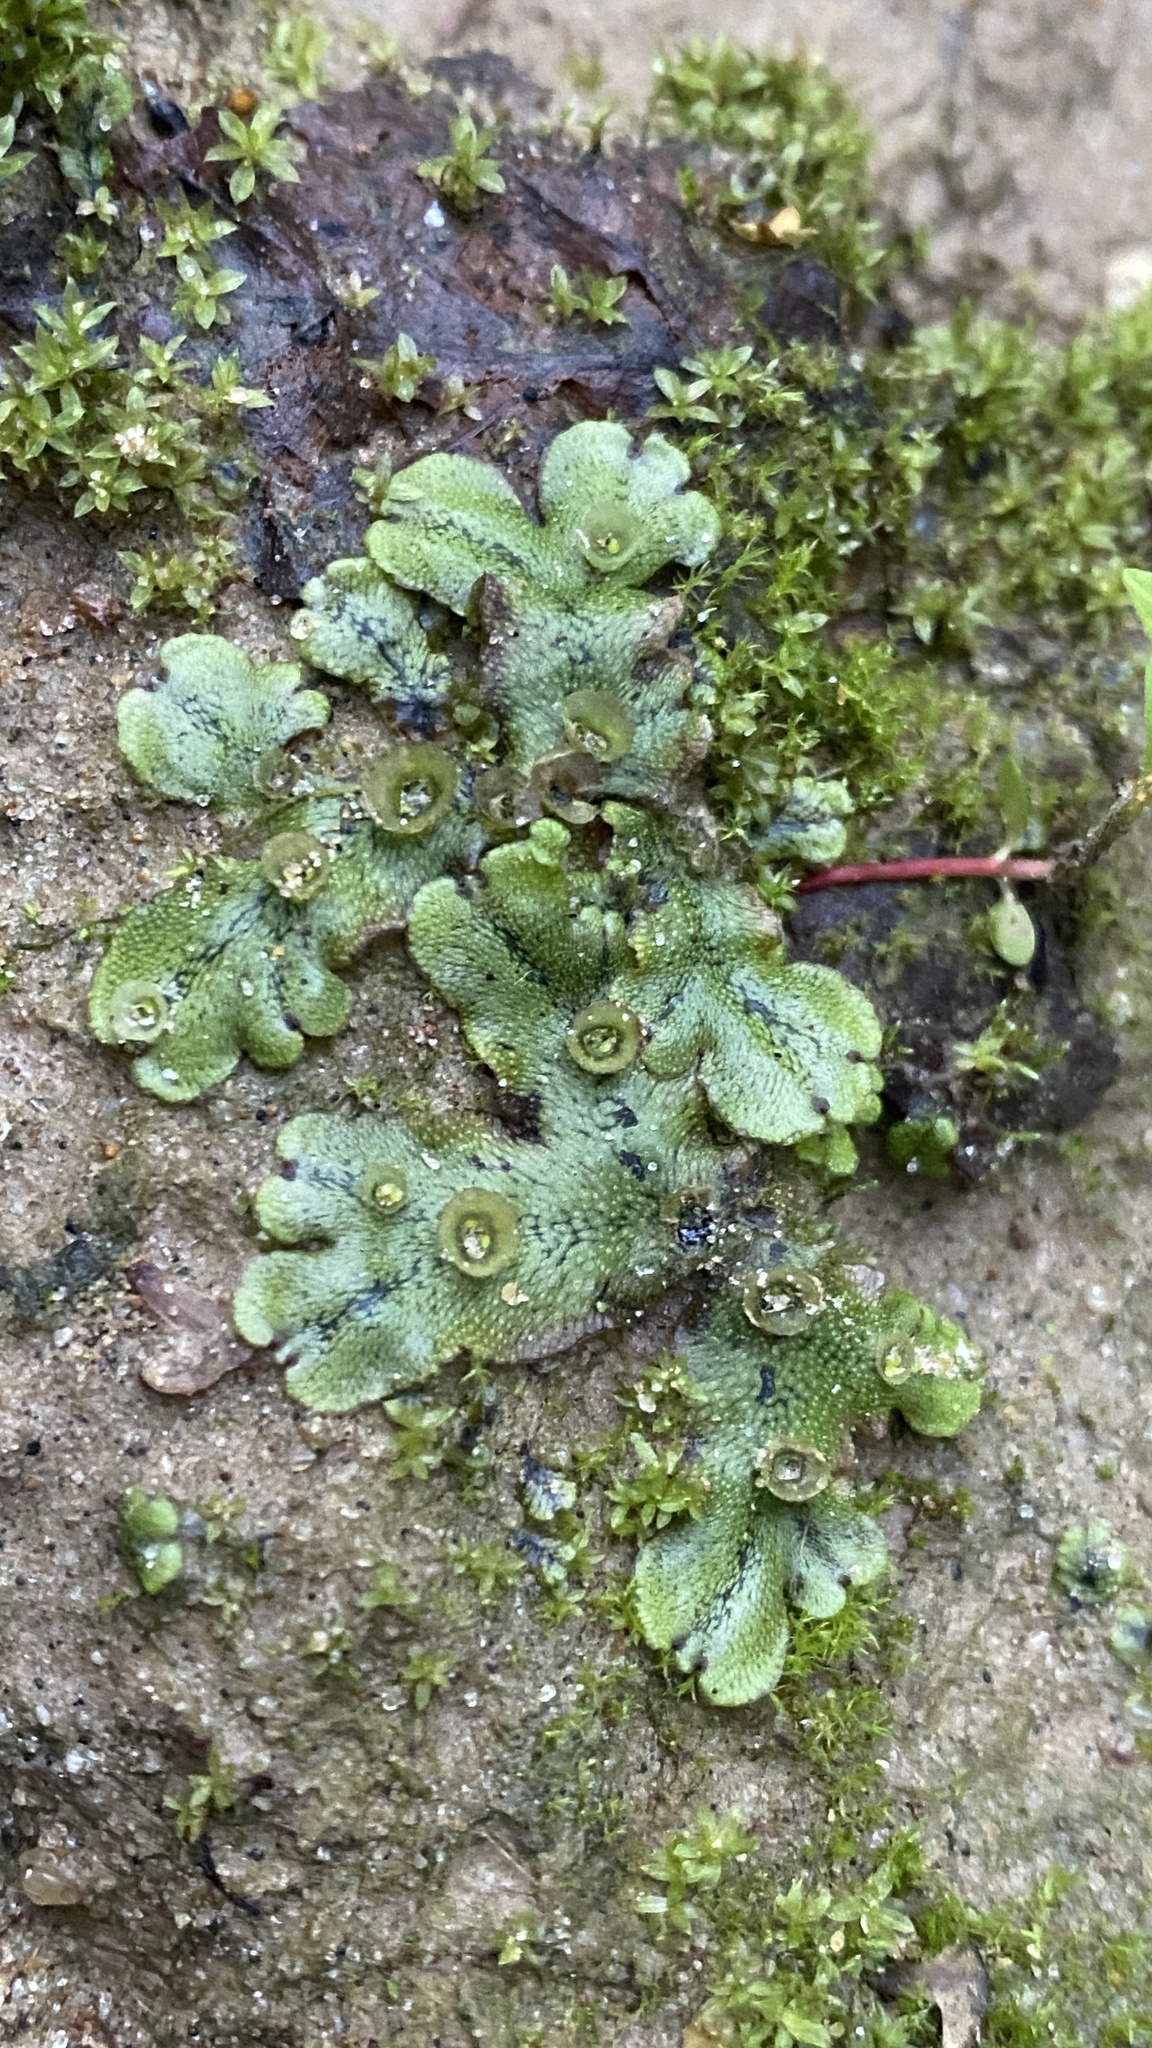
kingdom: Plantae
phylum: Marchantiophyta
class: Marchantiopsida
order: Marchantiales
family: Marchantiaceae
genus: Marchantia
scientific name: Marchantia polymorpha
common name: Common liverwort
